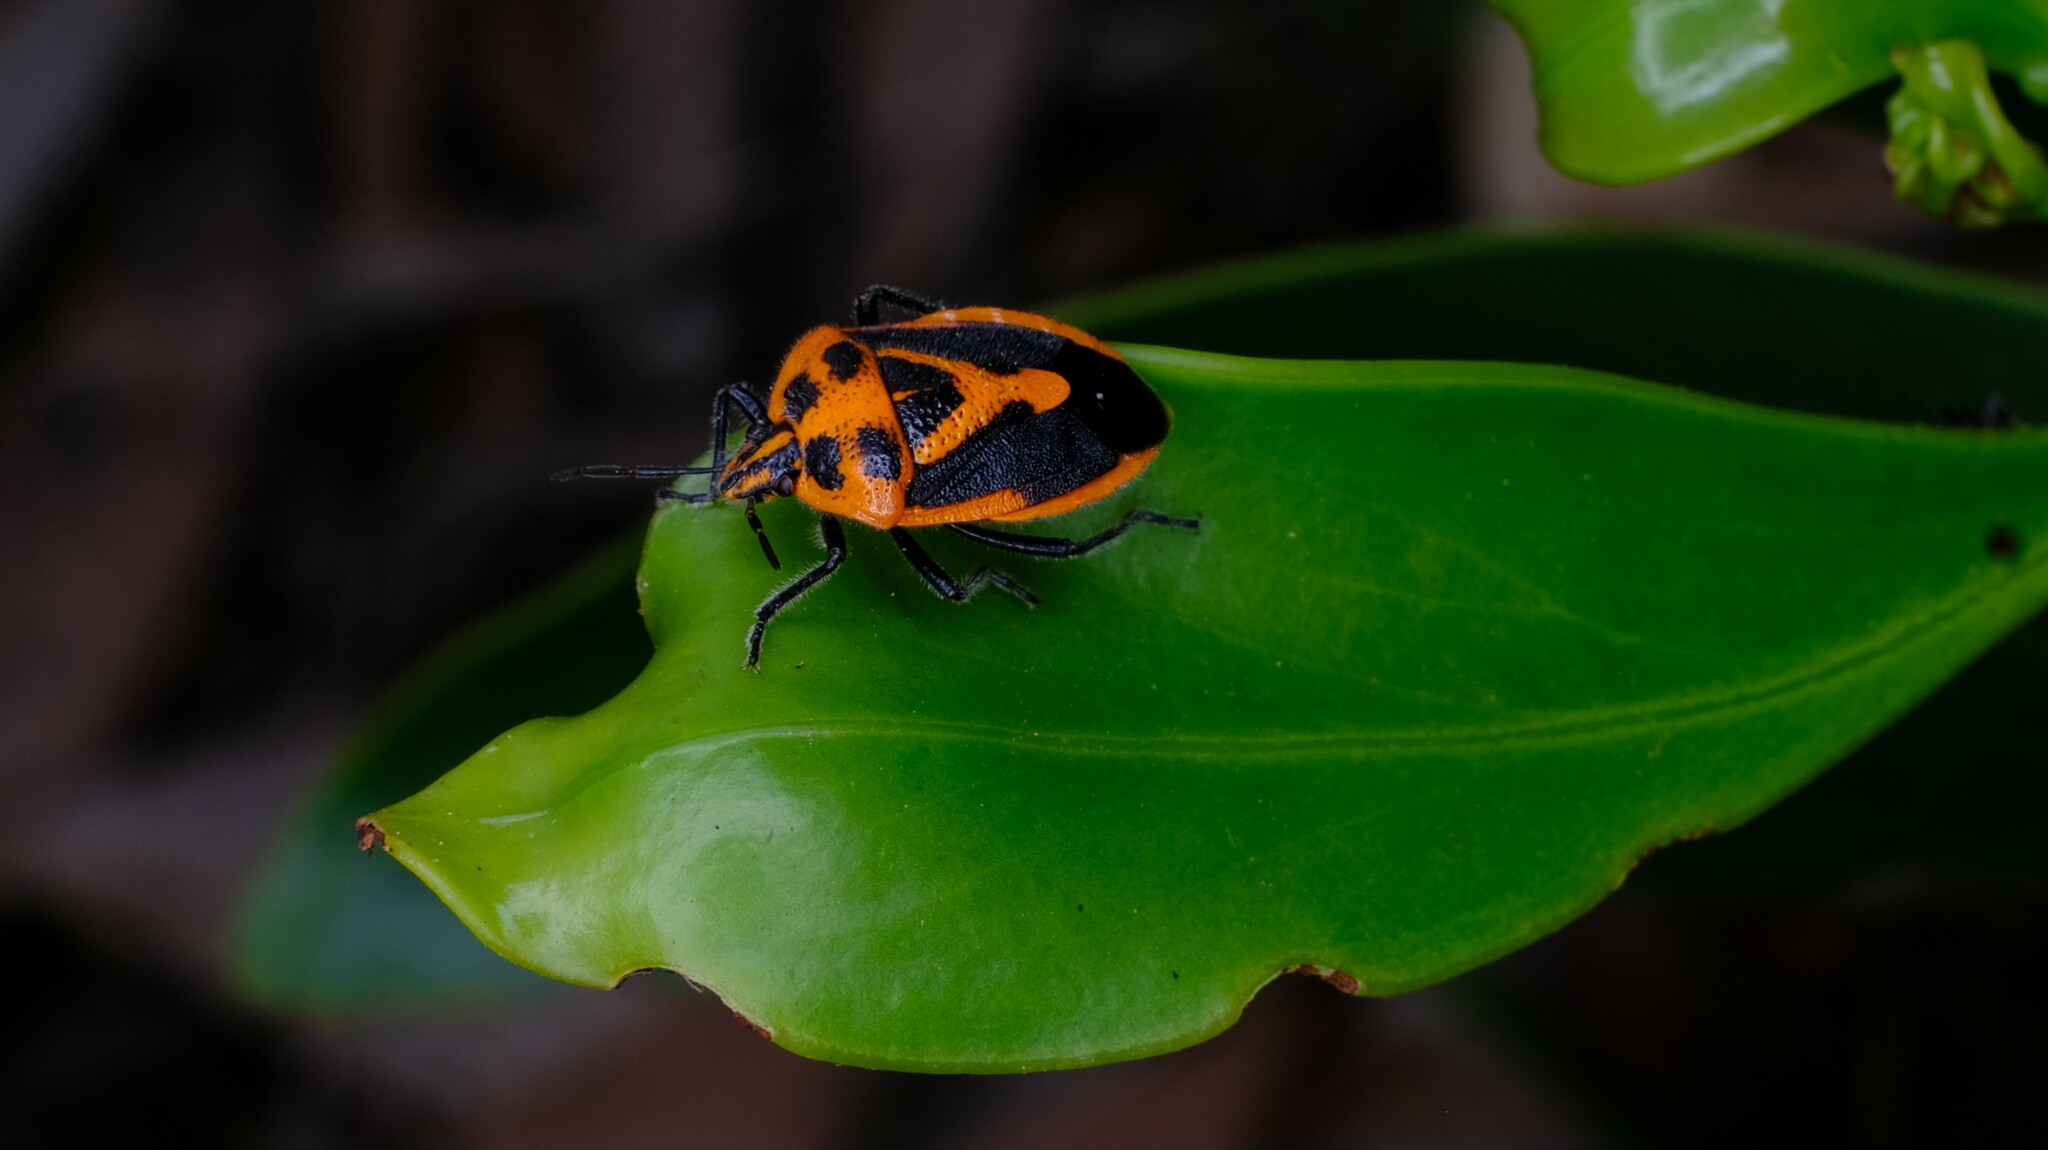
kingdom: Animalia
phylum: Arthropoda
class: Insecta
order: Hemiptera
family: Pentatomidae
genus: Agonoscelis
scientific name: Agonoscelis rutila
